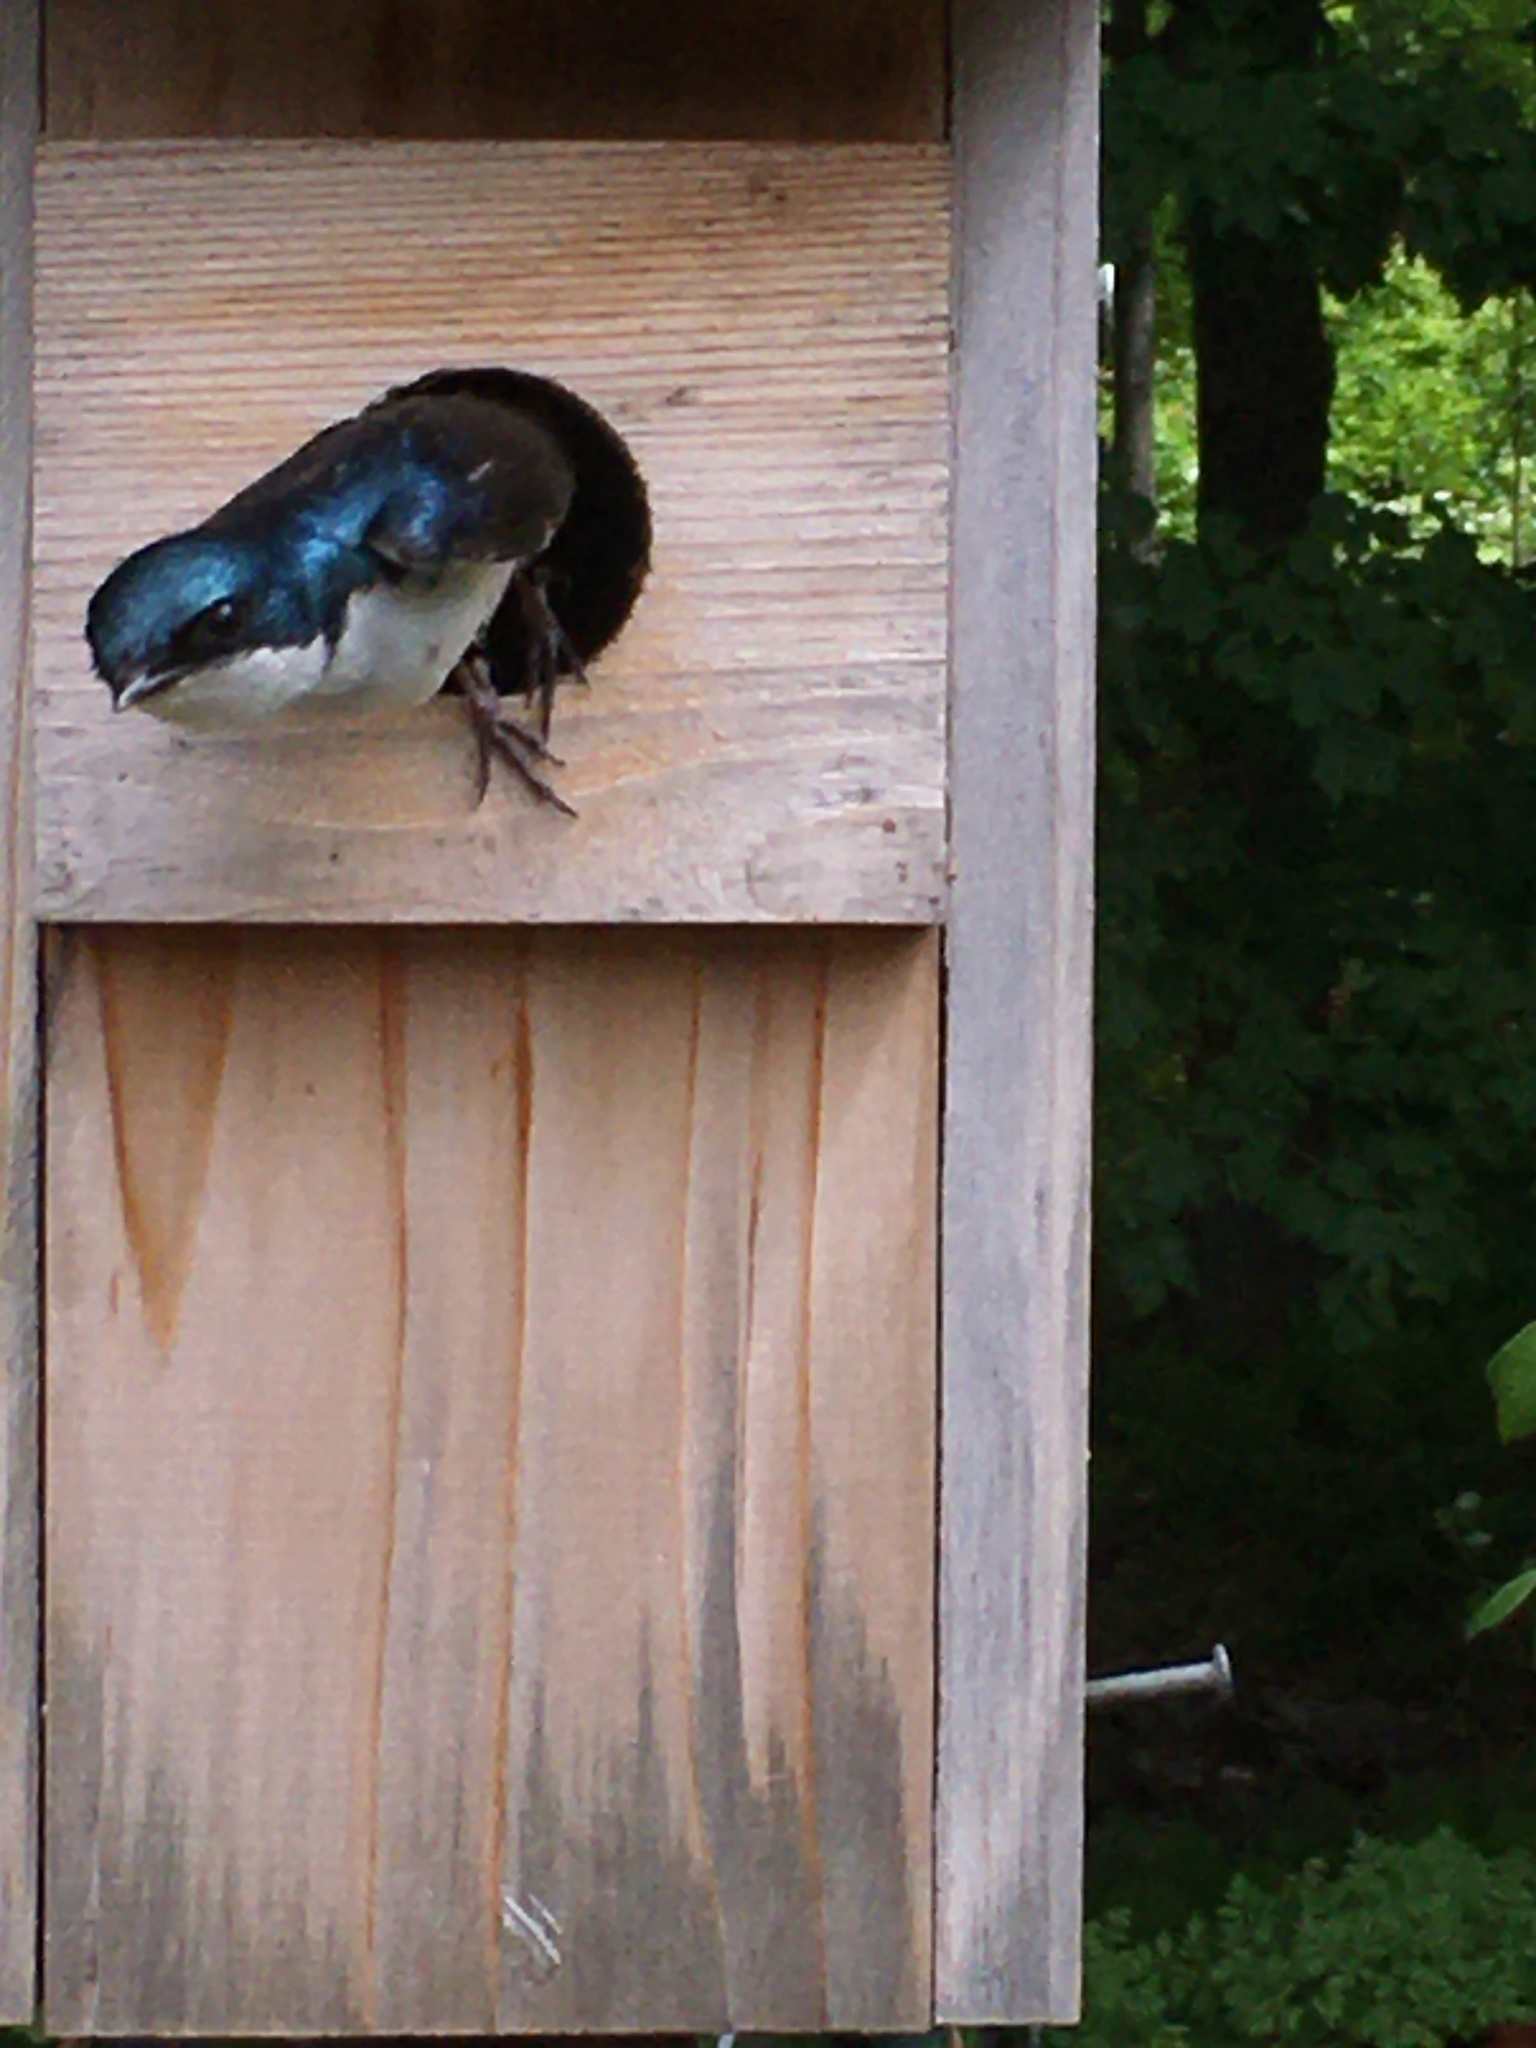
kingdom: Animalia
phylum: Chordata
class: Aves
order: Passeriformes
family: Hirundinidae
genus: Tachycineta
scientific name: Tachycineta bicolor
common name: Tree swallow
